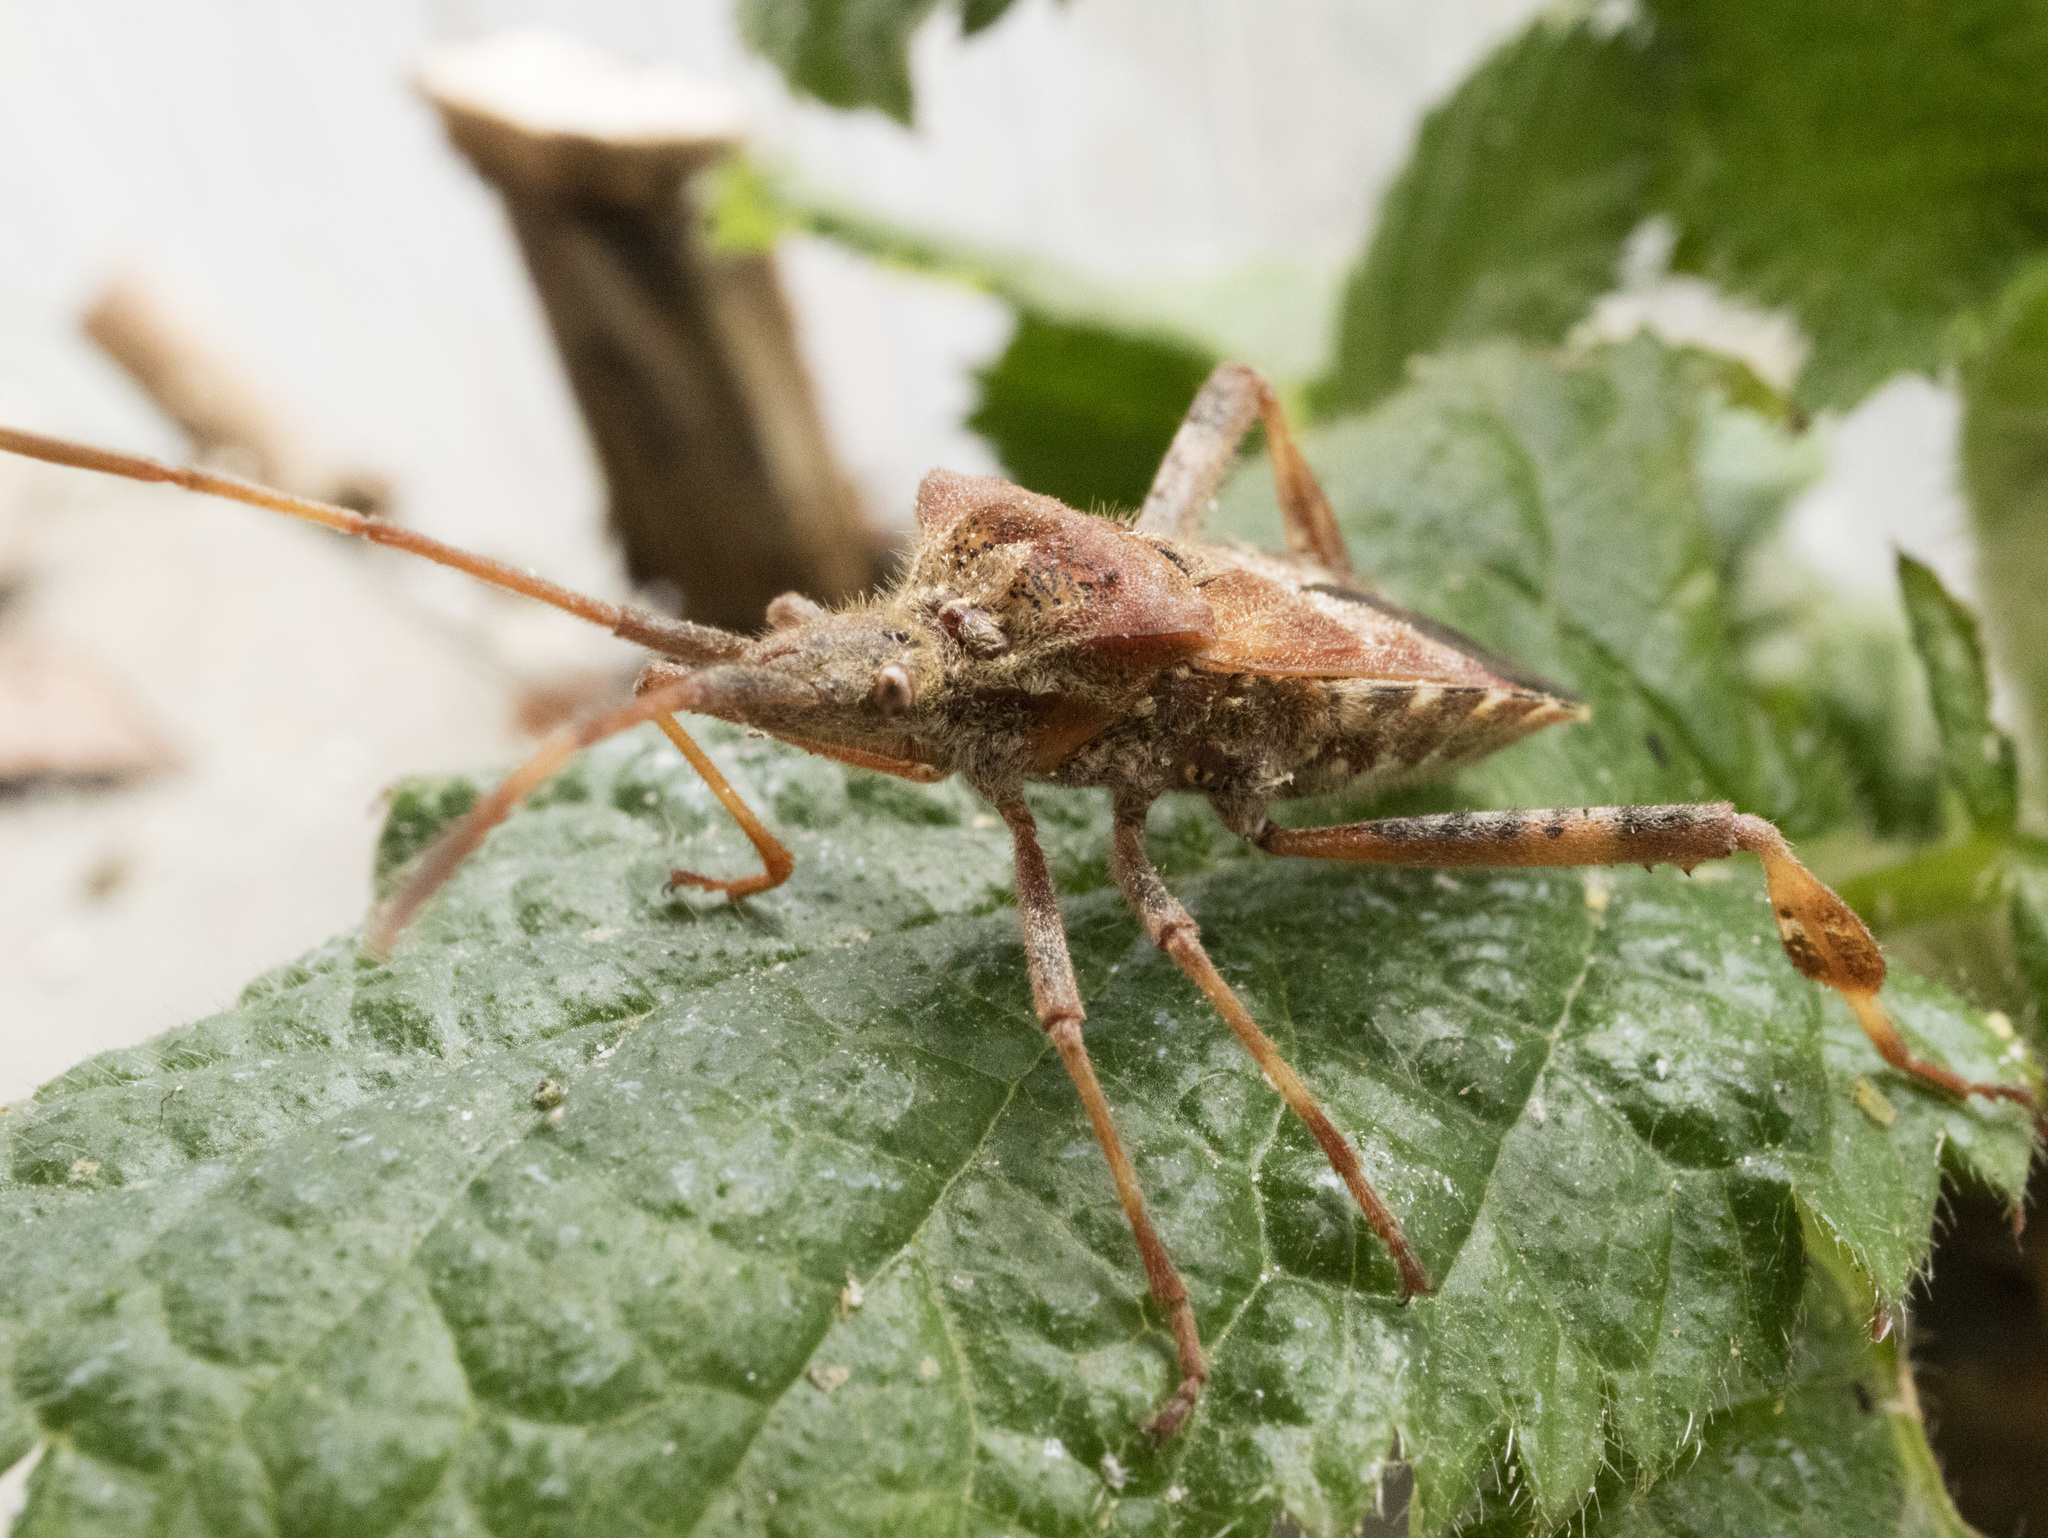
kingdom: Animalia
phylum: Arthropoda
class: Insecta
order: Hemiptera
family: Coreidae
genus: Leptoglossus
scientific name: Leptoglossus occidentalis
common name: Western conifer-seed bug
